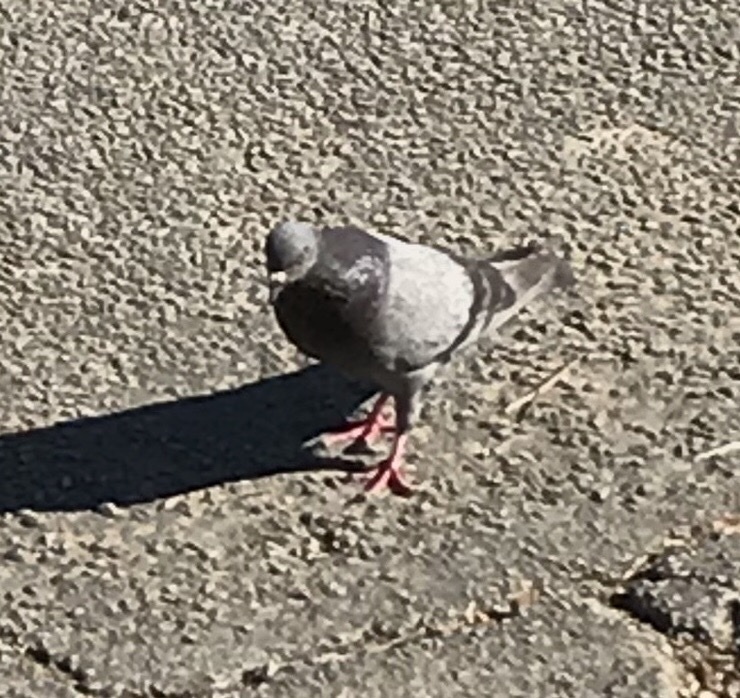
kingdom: Animalia
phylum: Chordata
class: Aves
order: Columbiformes
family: Columbidae
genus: Columba
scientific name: Columba livia
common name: Rock pigeon
